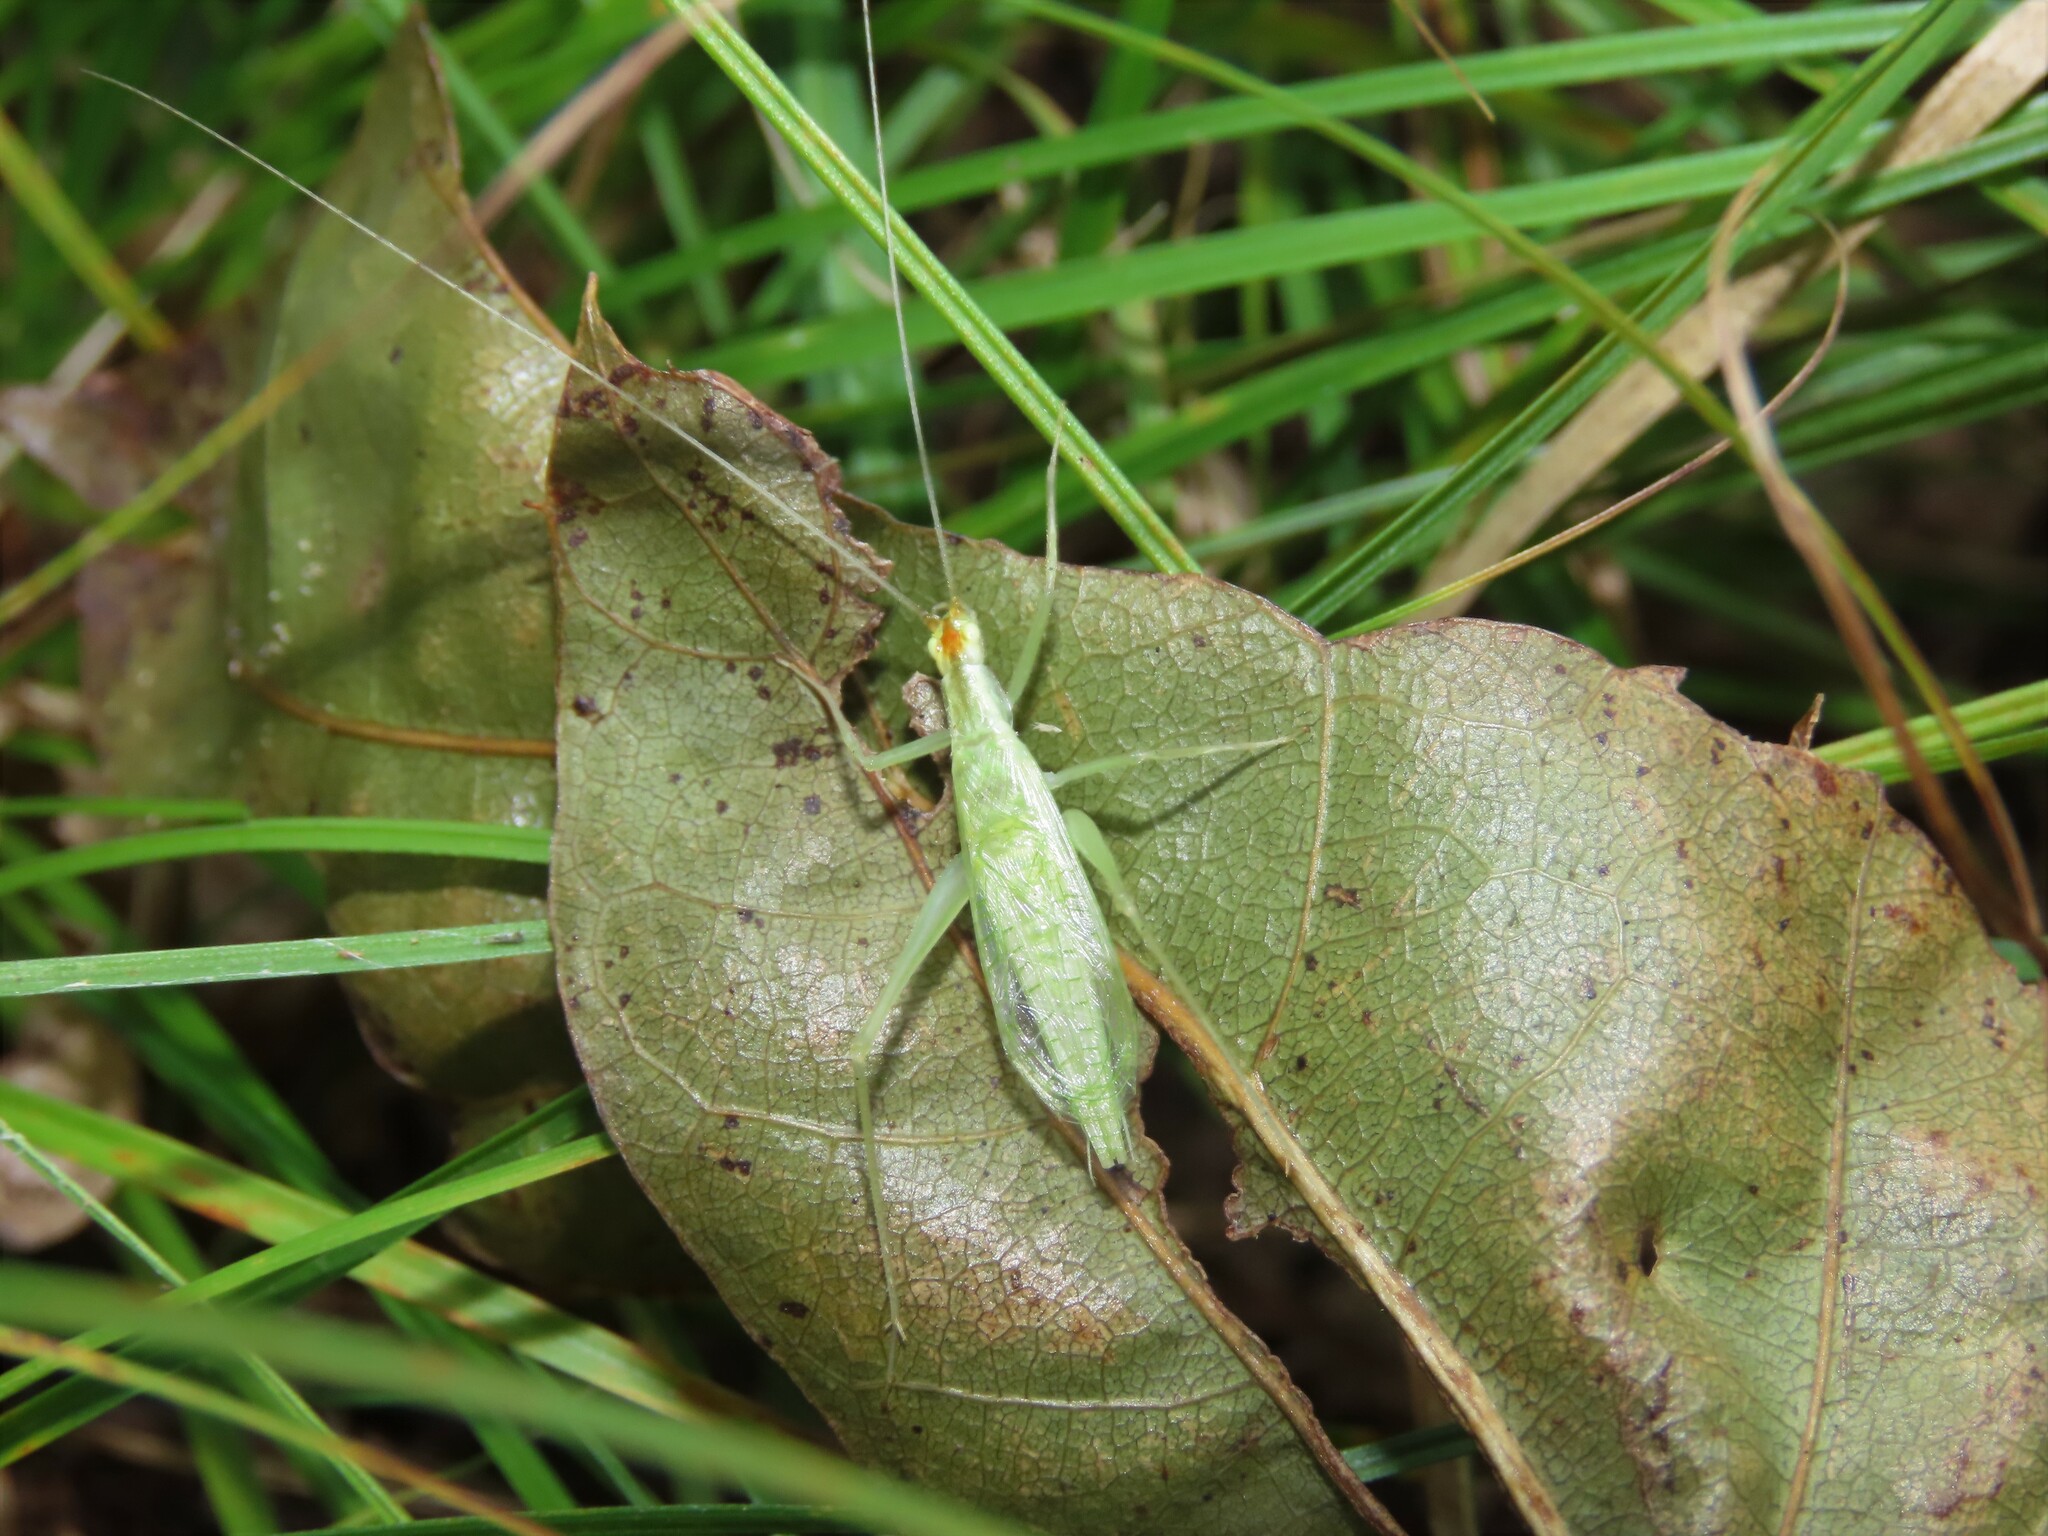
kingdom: Animalia
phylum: Arthropoda
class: Insecta
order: Orthoptera
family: Gryllidae
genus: Oecanthus
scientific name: Oecanthus niveus
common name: Narrow-winged tree cricket
